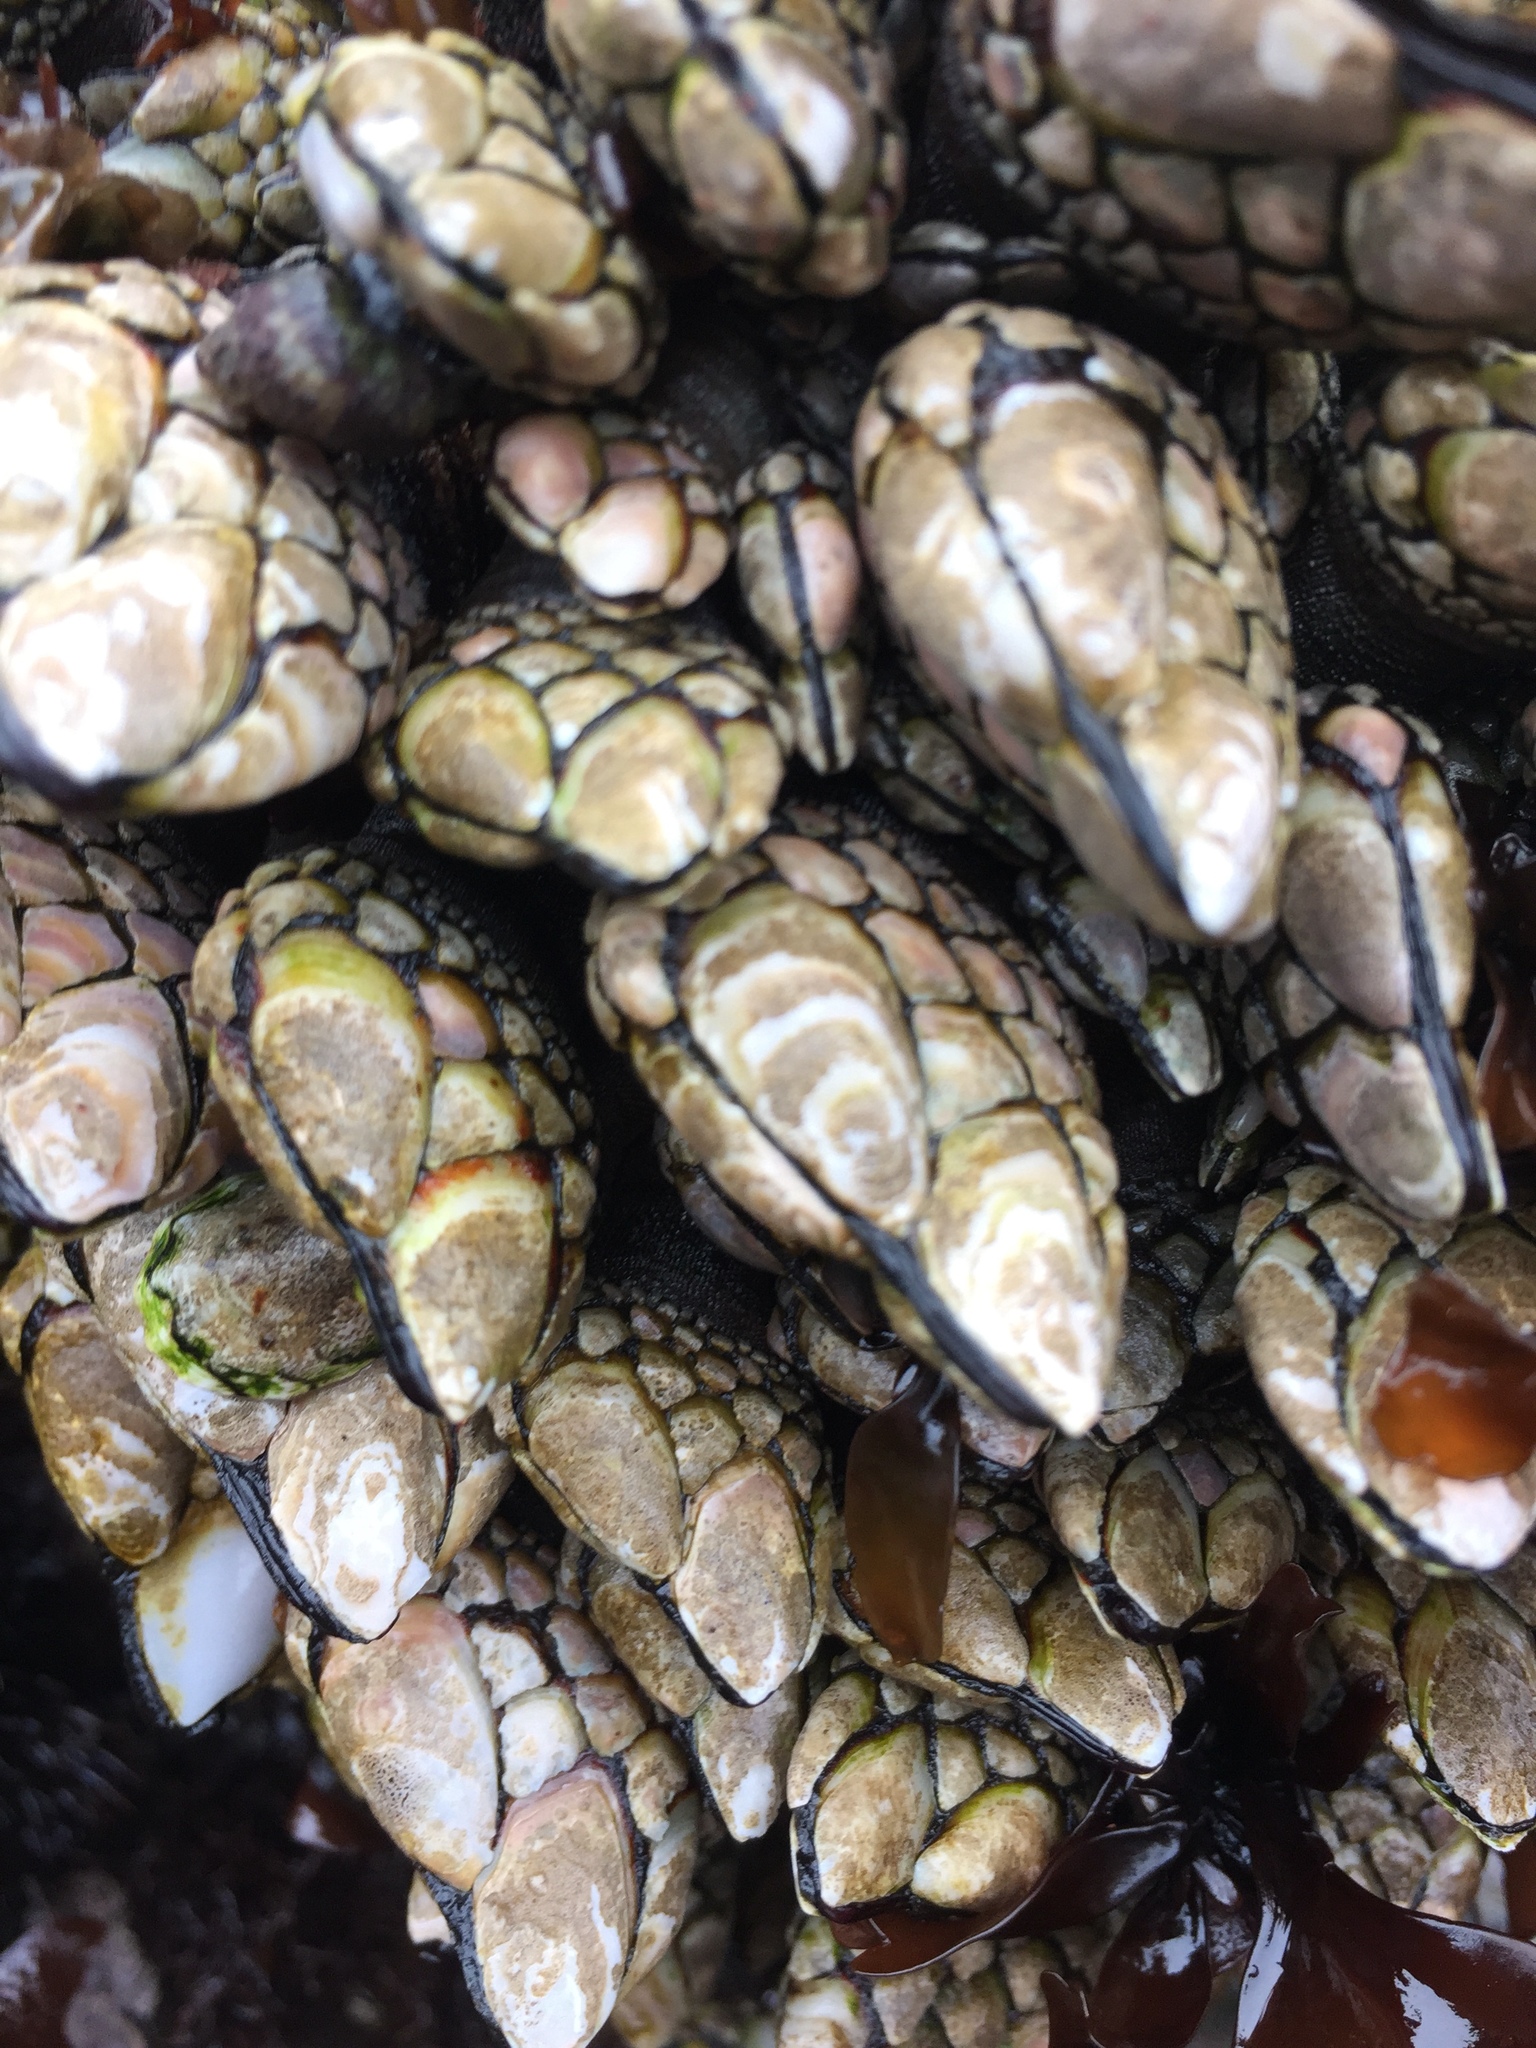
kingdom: Animalia
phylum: Arthropoda
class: Maxillopoda
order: Pedunculata
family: Pollicipedidae
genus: Pollicipes
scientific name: Pollicipes polymerus
